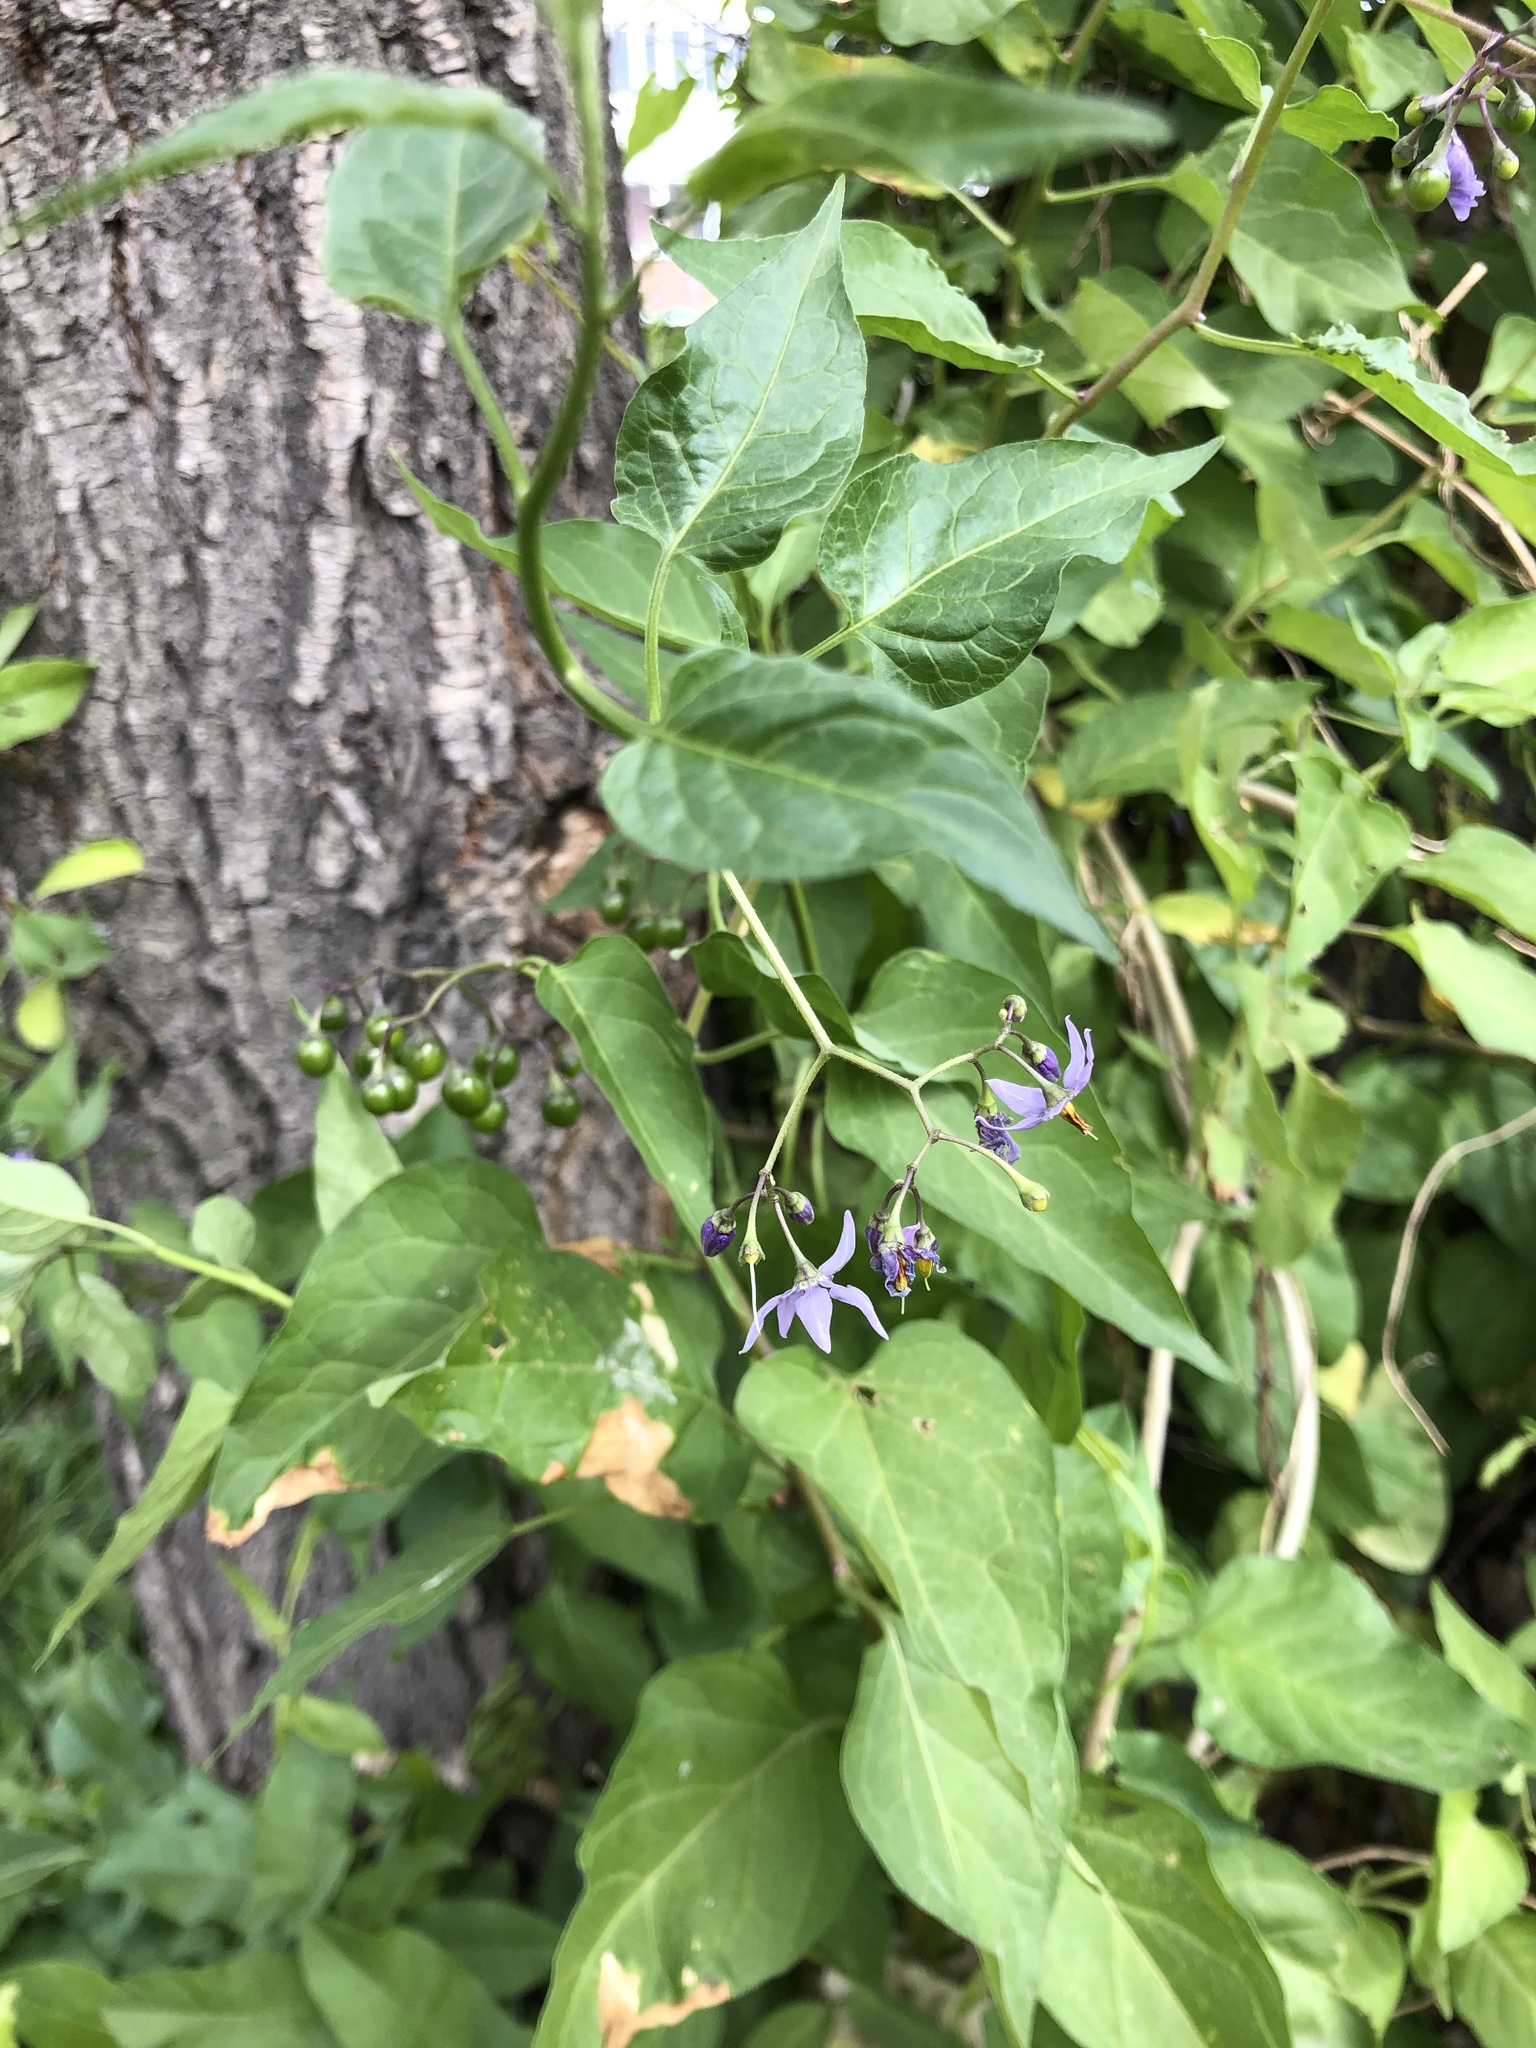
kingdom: Plantae
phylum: Tracheophyta
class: Magnoliopsida
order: Solanales
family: Solanaceae
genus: Solanum
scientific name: Solanum dulcamara
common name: Climbing nightshade
